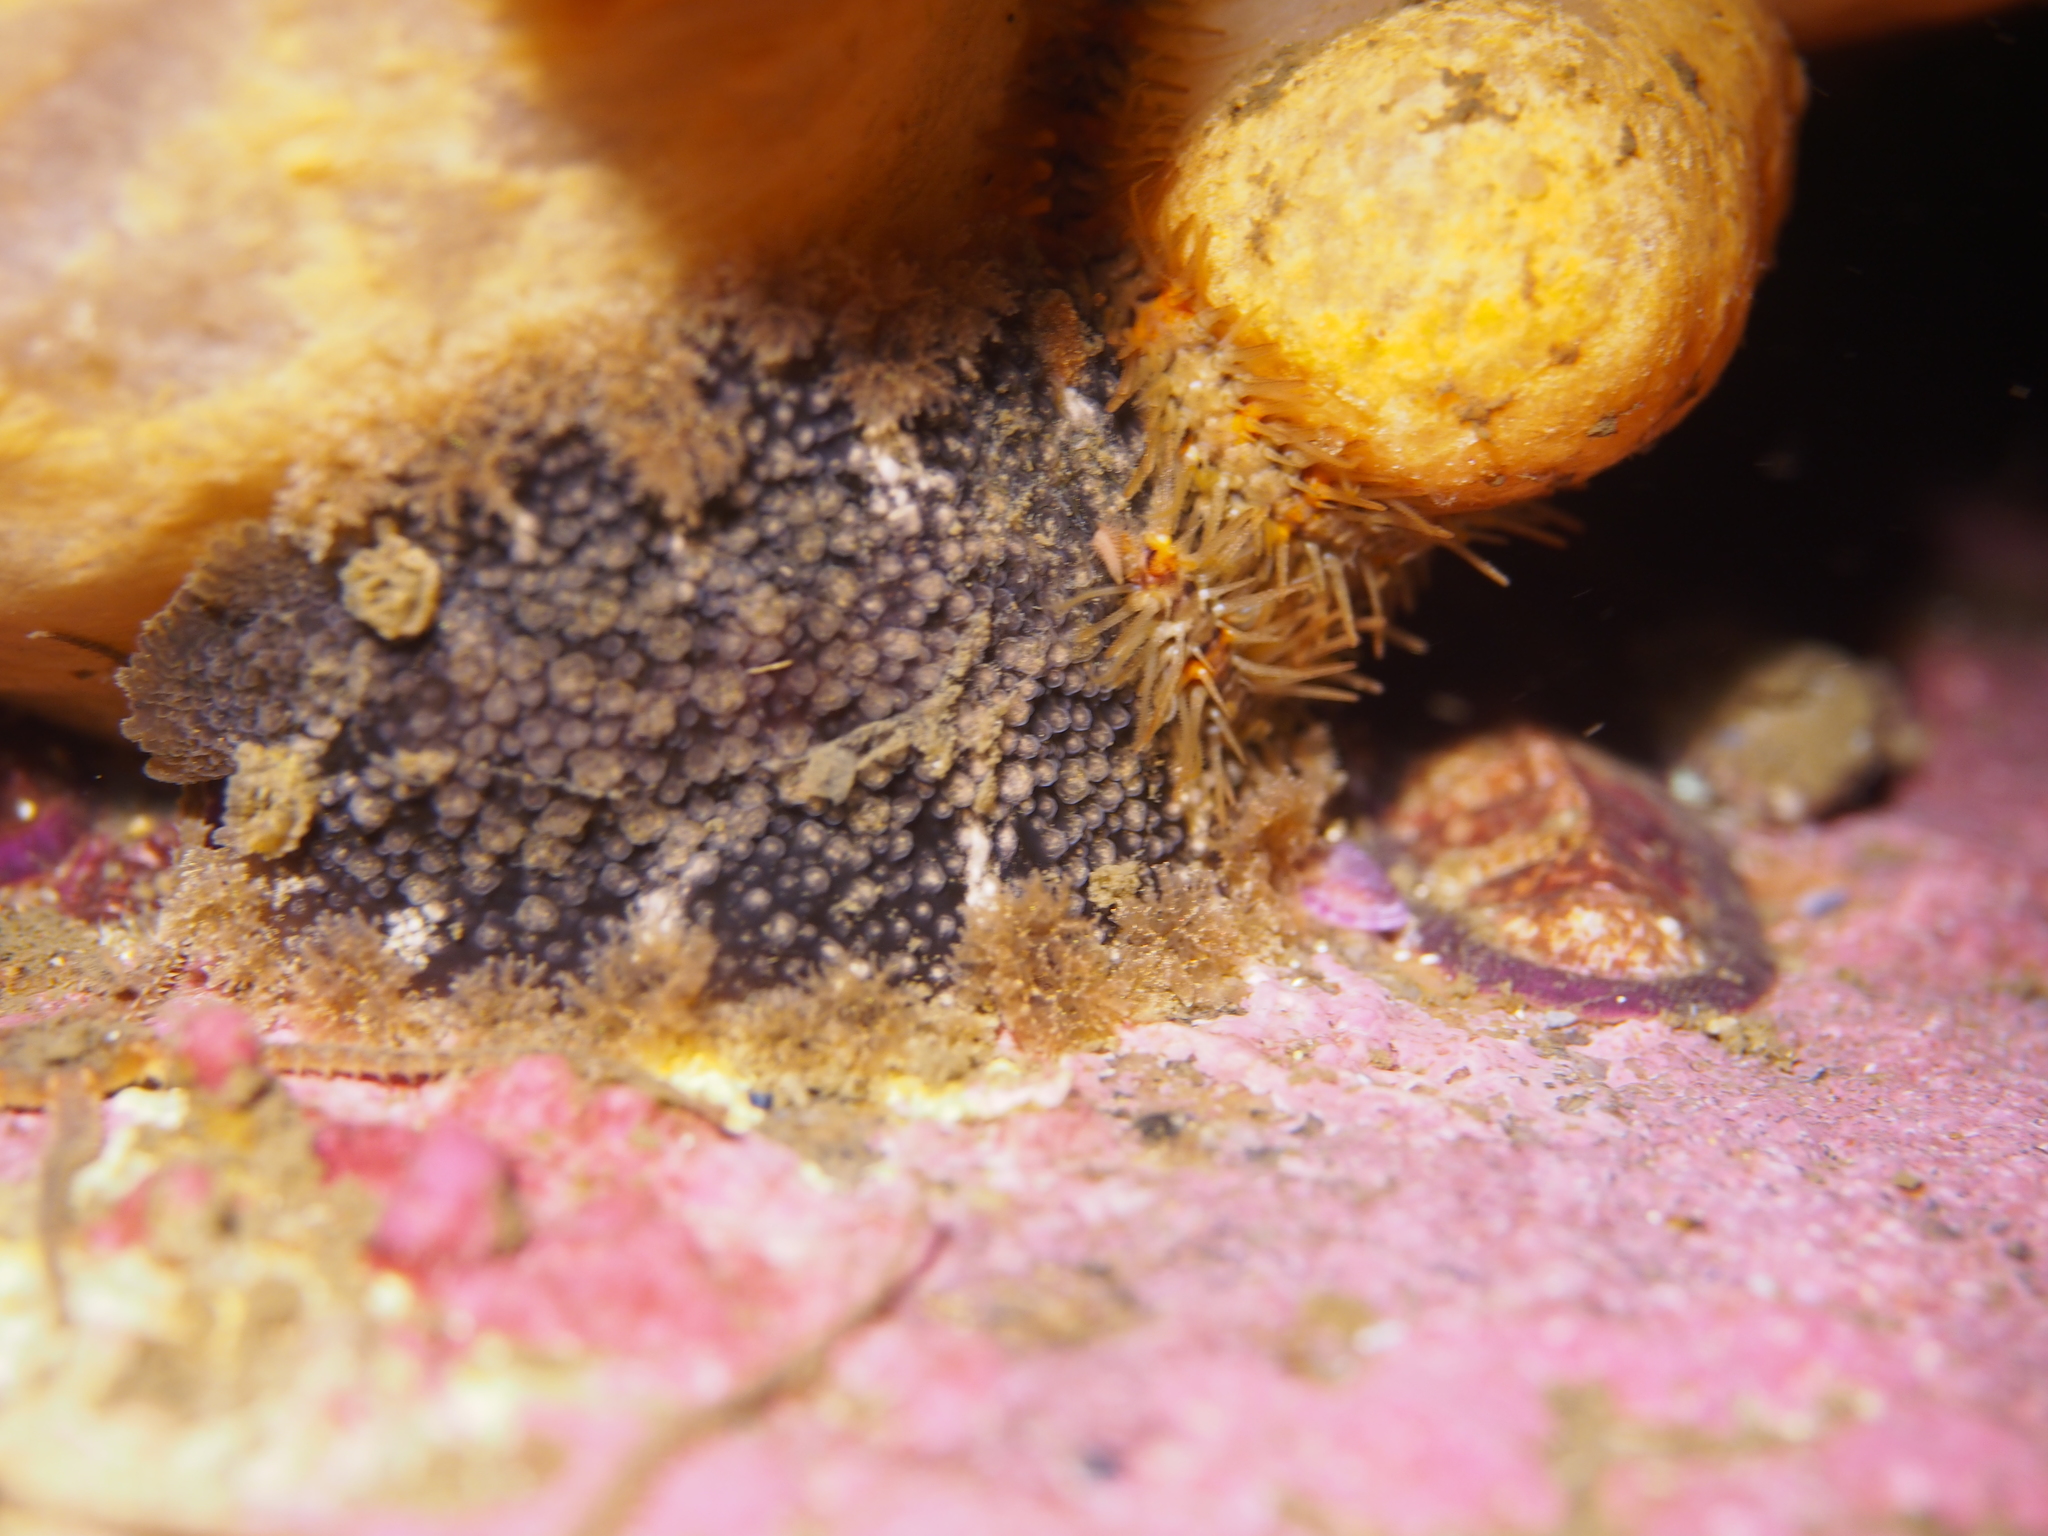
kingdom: Animalia
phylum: Mollusca
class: Gastropoda
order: Nudibranchia
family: Tritoniidae
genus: Tritonia
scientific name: Tritonia hombergii
